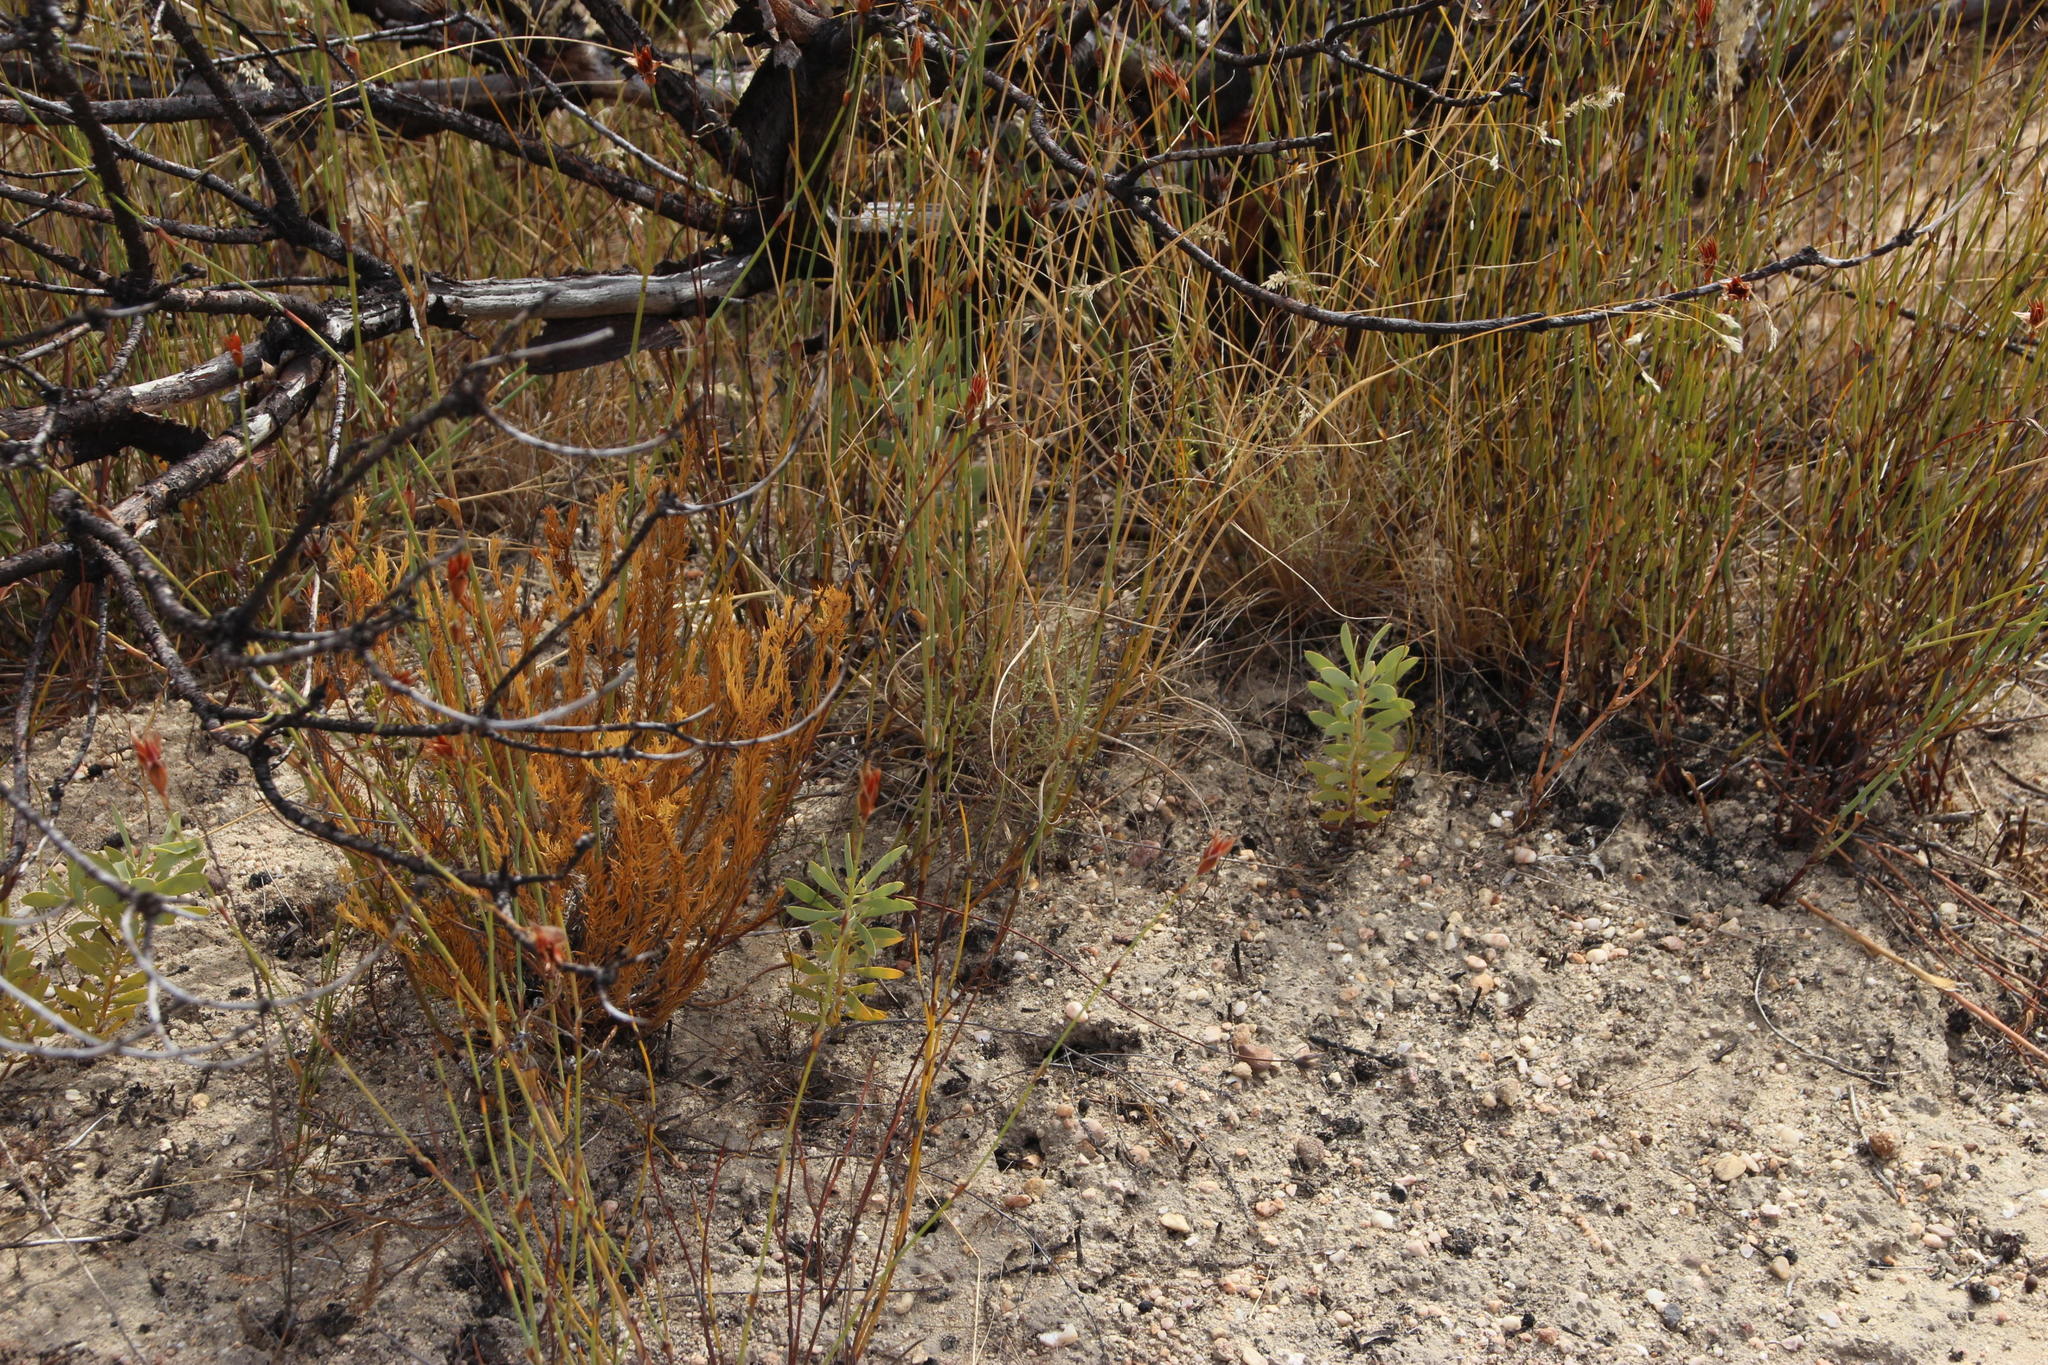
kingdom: Plantae
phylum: Tracheophyta
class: Magnoliopsida
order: Proteales
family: Proteaceae
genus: Leucadendron
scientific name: Leucadendron loranthifolium
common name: Green-flower sunbush
